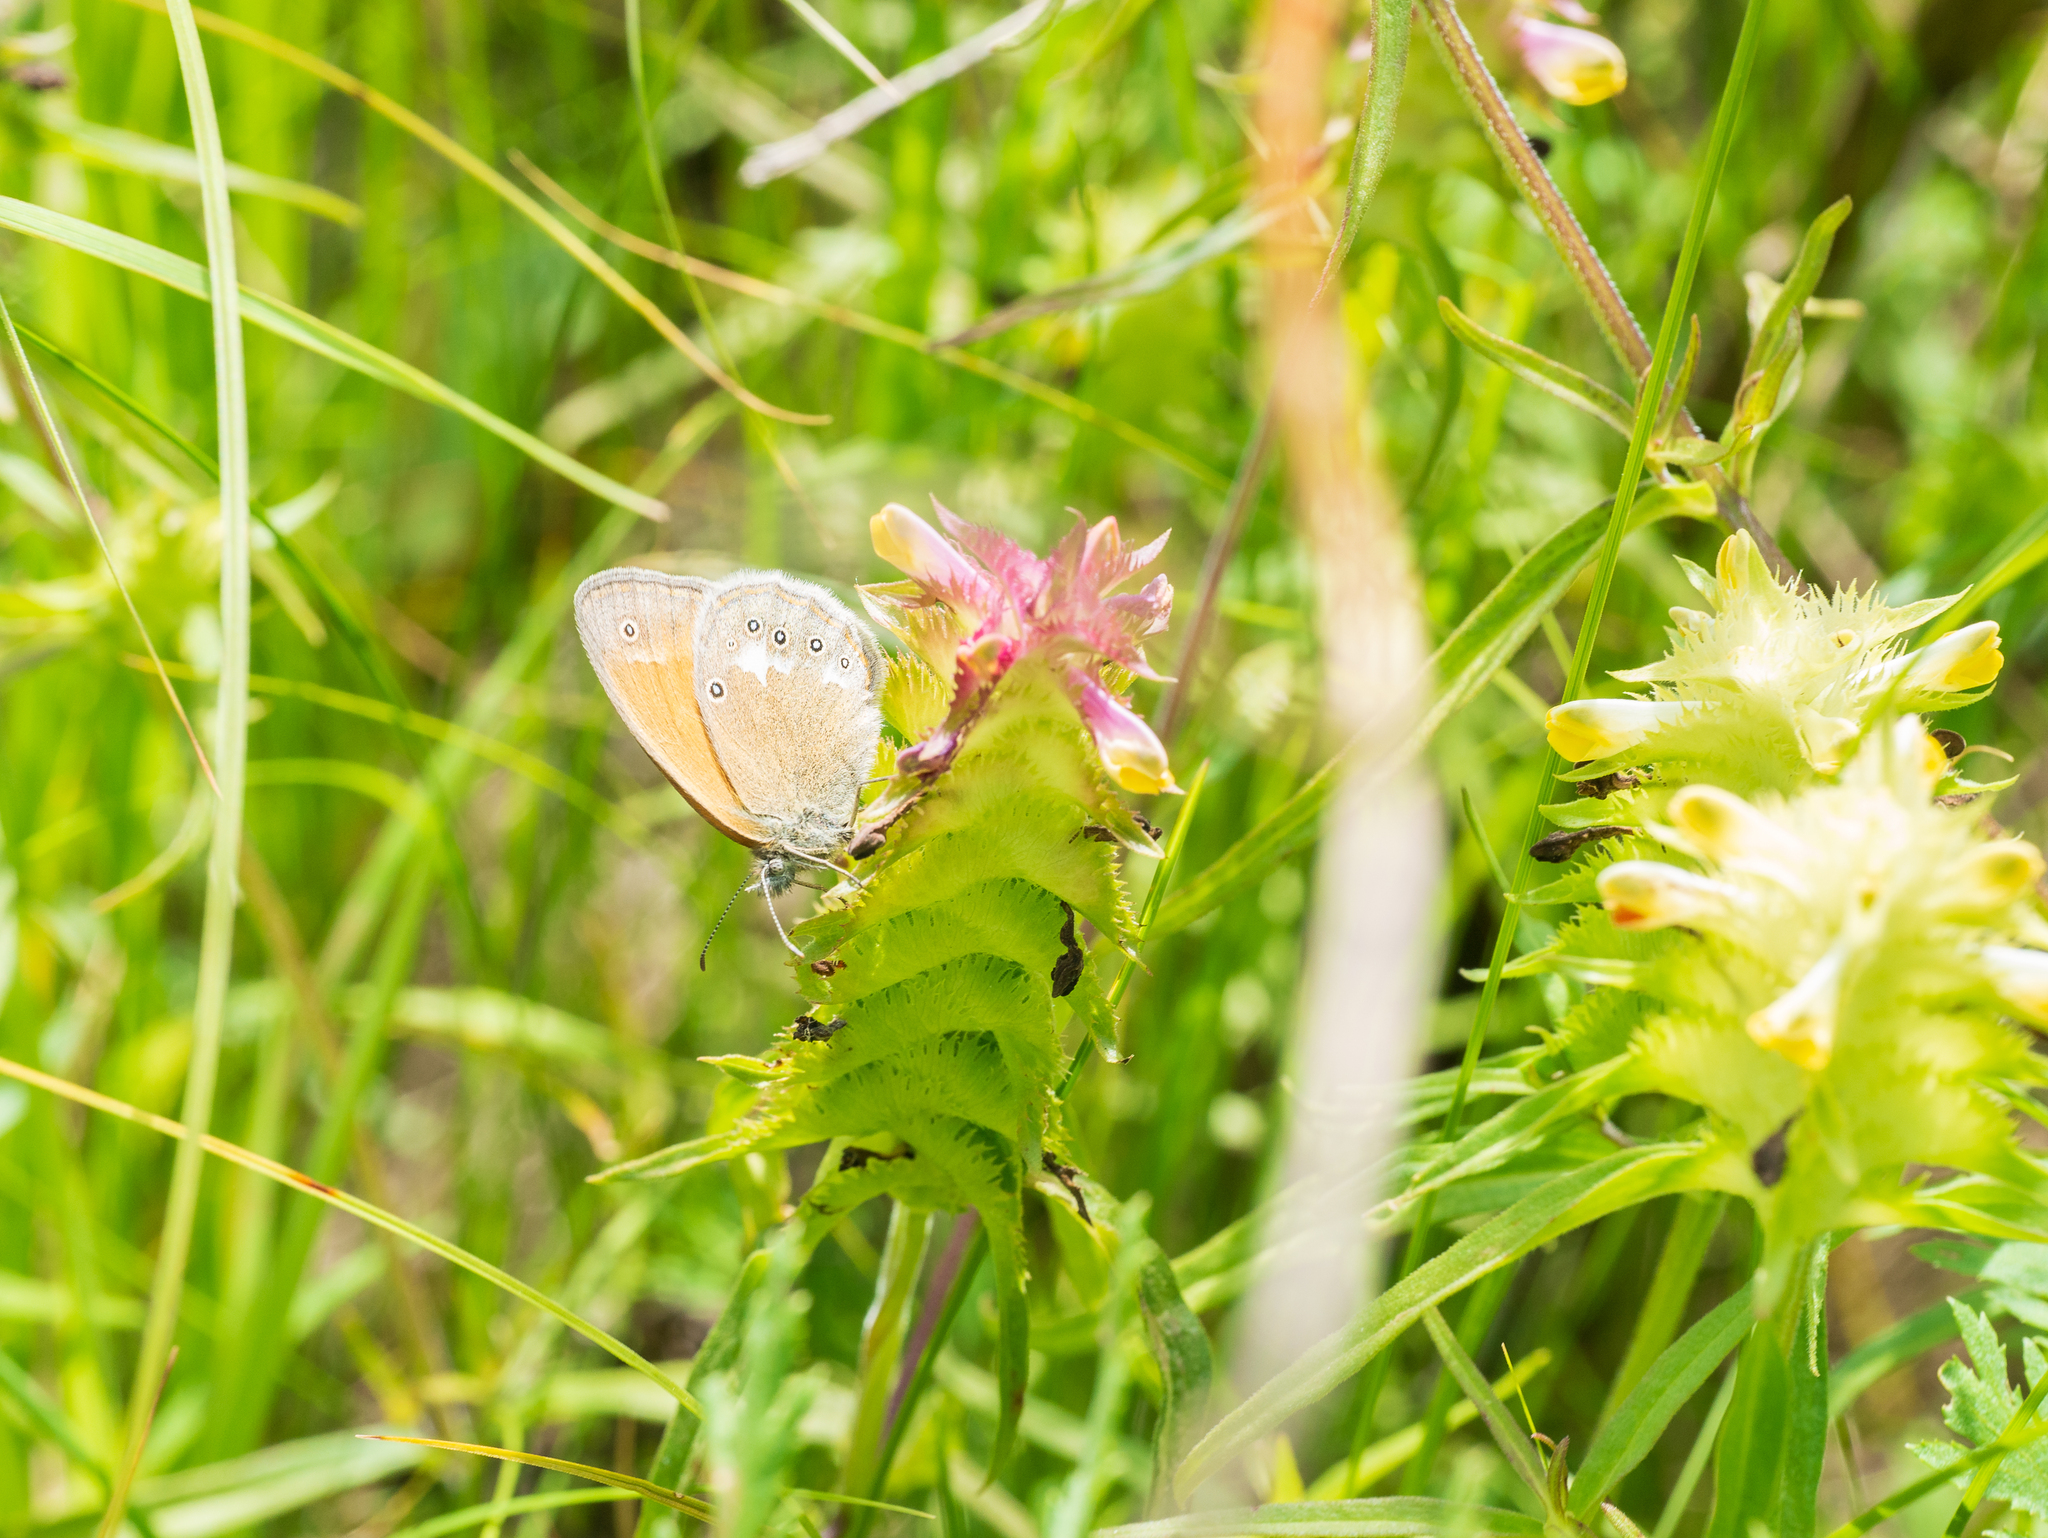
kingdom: Animalia
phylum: Arthropoda
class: Insecta
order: Lepidoptera
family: Nymphalidae
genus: Coenonympha
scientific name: Coenonympha iphis
